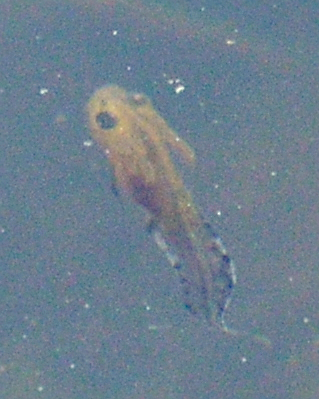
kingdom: Animalia
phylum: Chordata
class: Amphibia
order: Caudata
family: Salamandridae
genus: Triturus
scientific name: Triturus cristatus
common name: Crested newt
